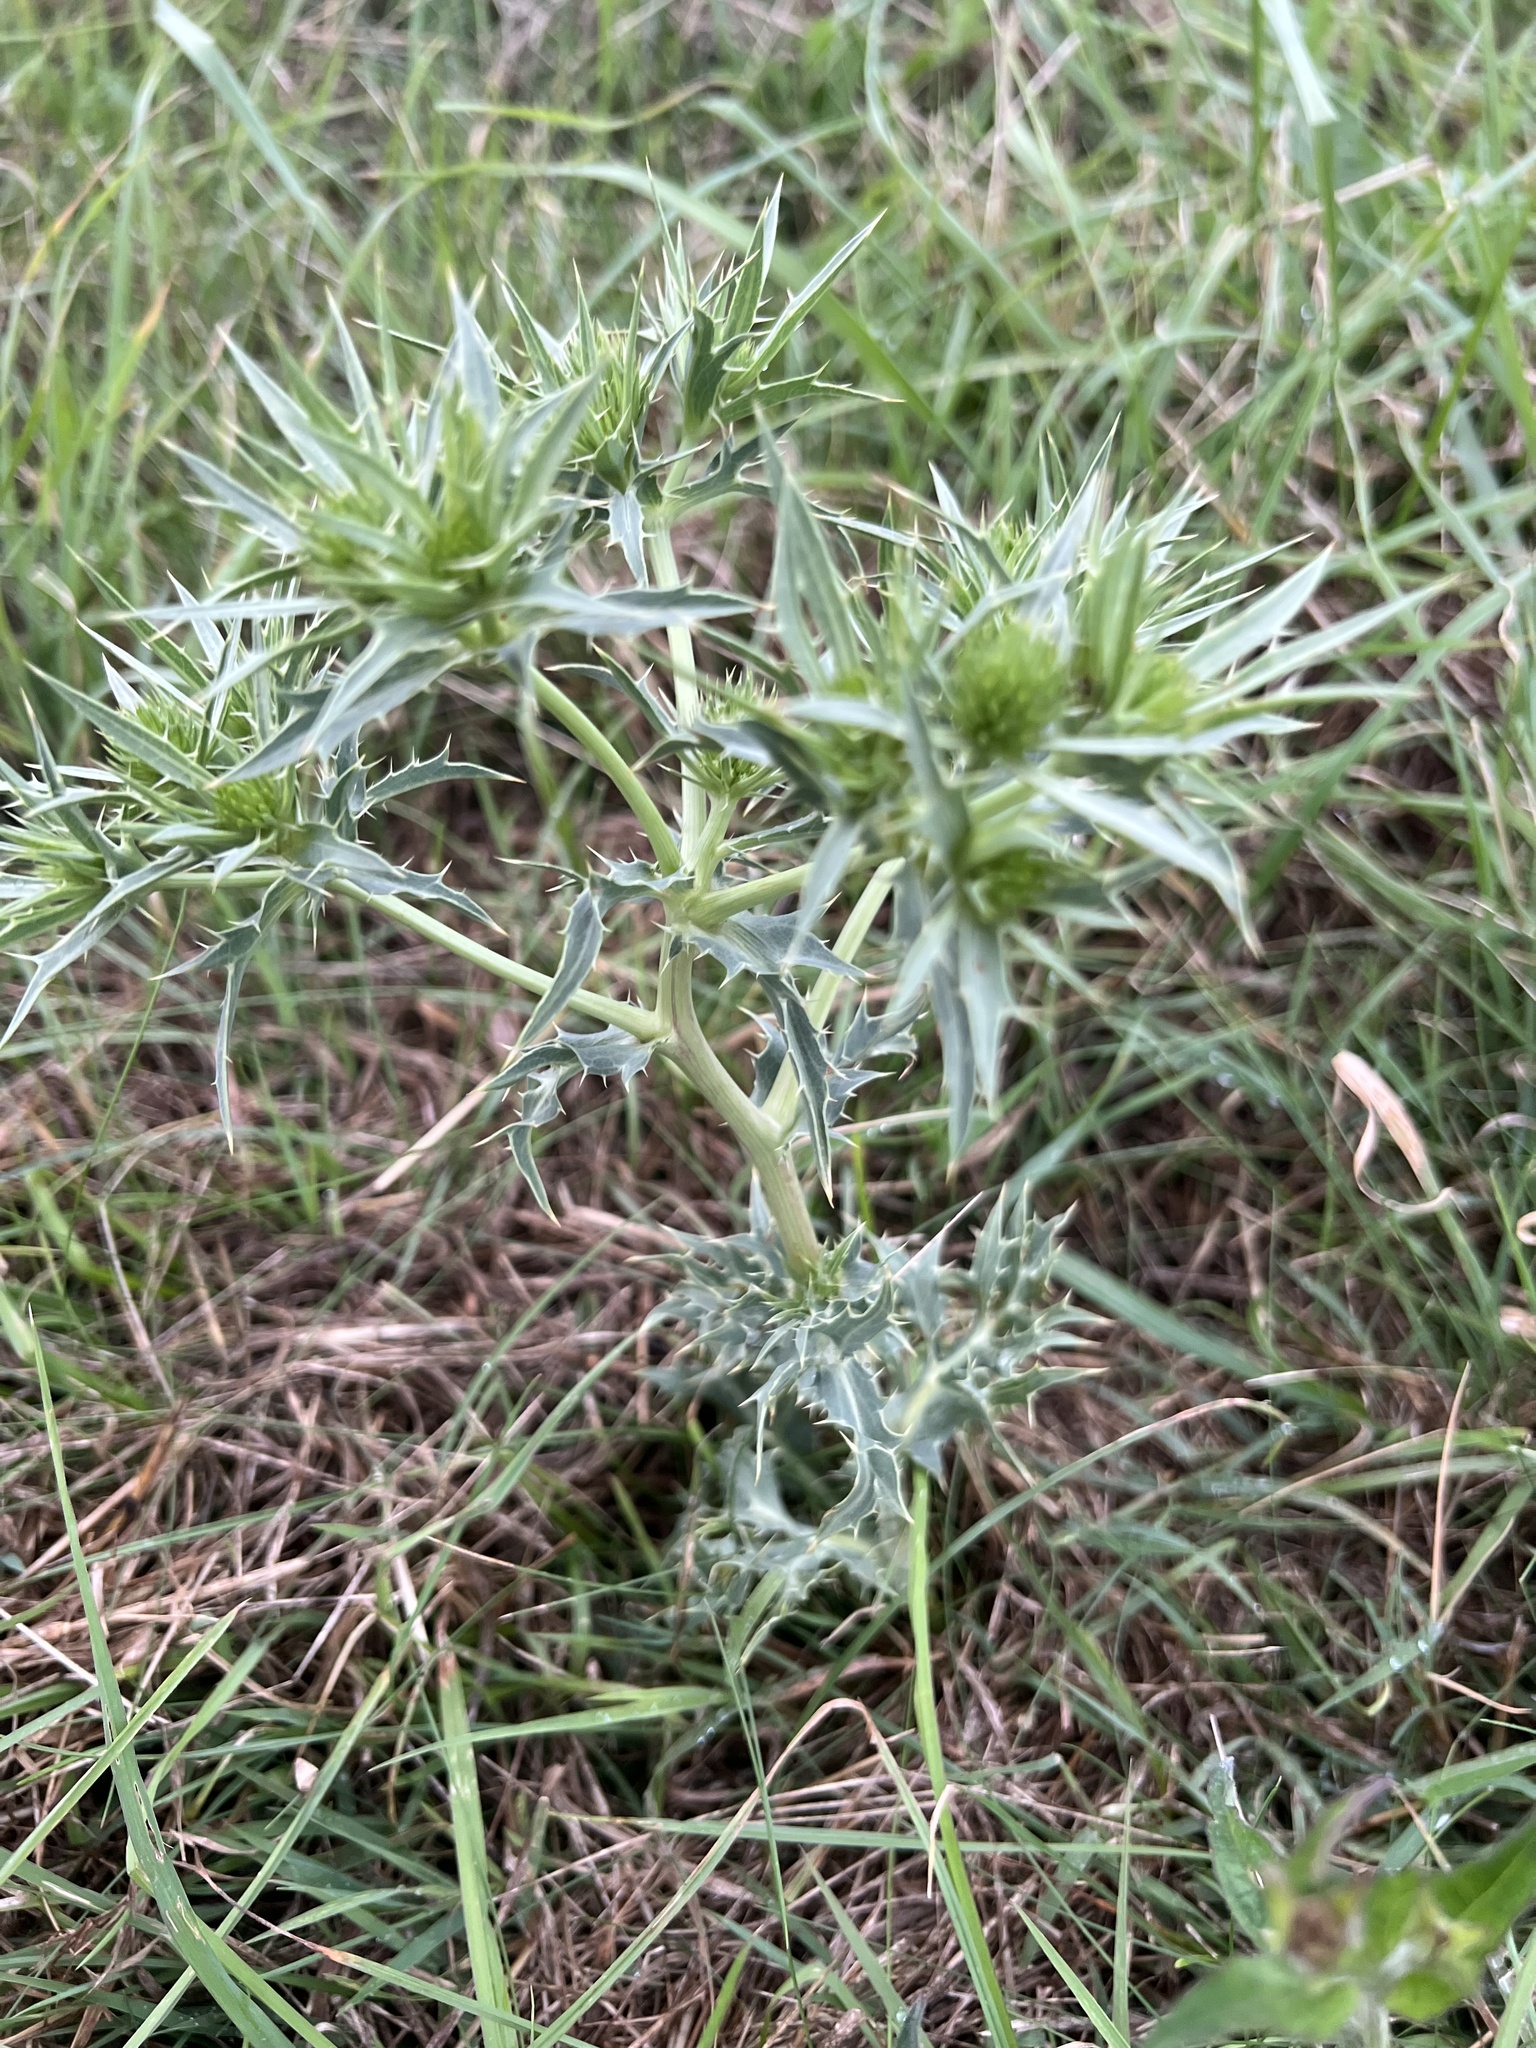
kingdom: Plantae
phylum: Tracheophyta
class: Magnoliopsida
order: Apiales
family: Apiaceae
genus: Eryngium
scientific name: Eryngium campestre
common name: Field eryngo
